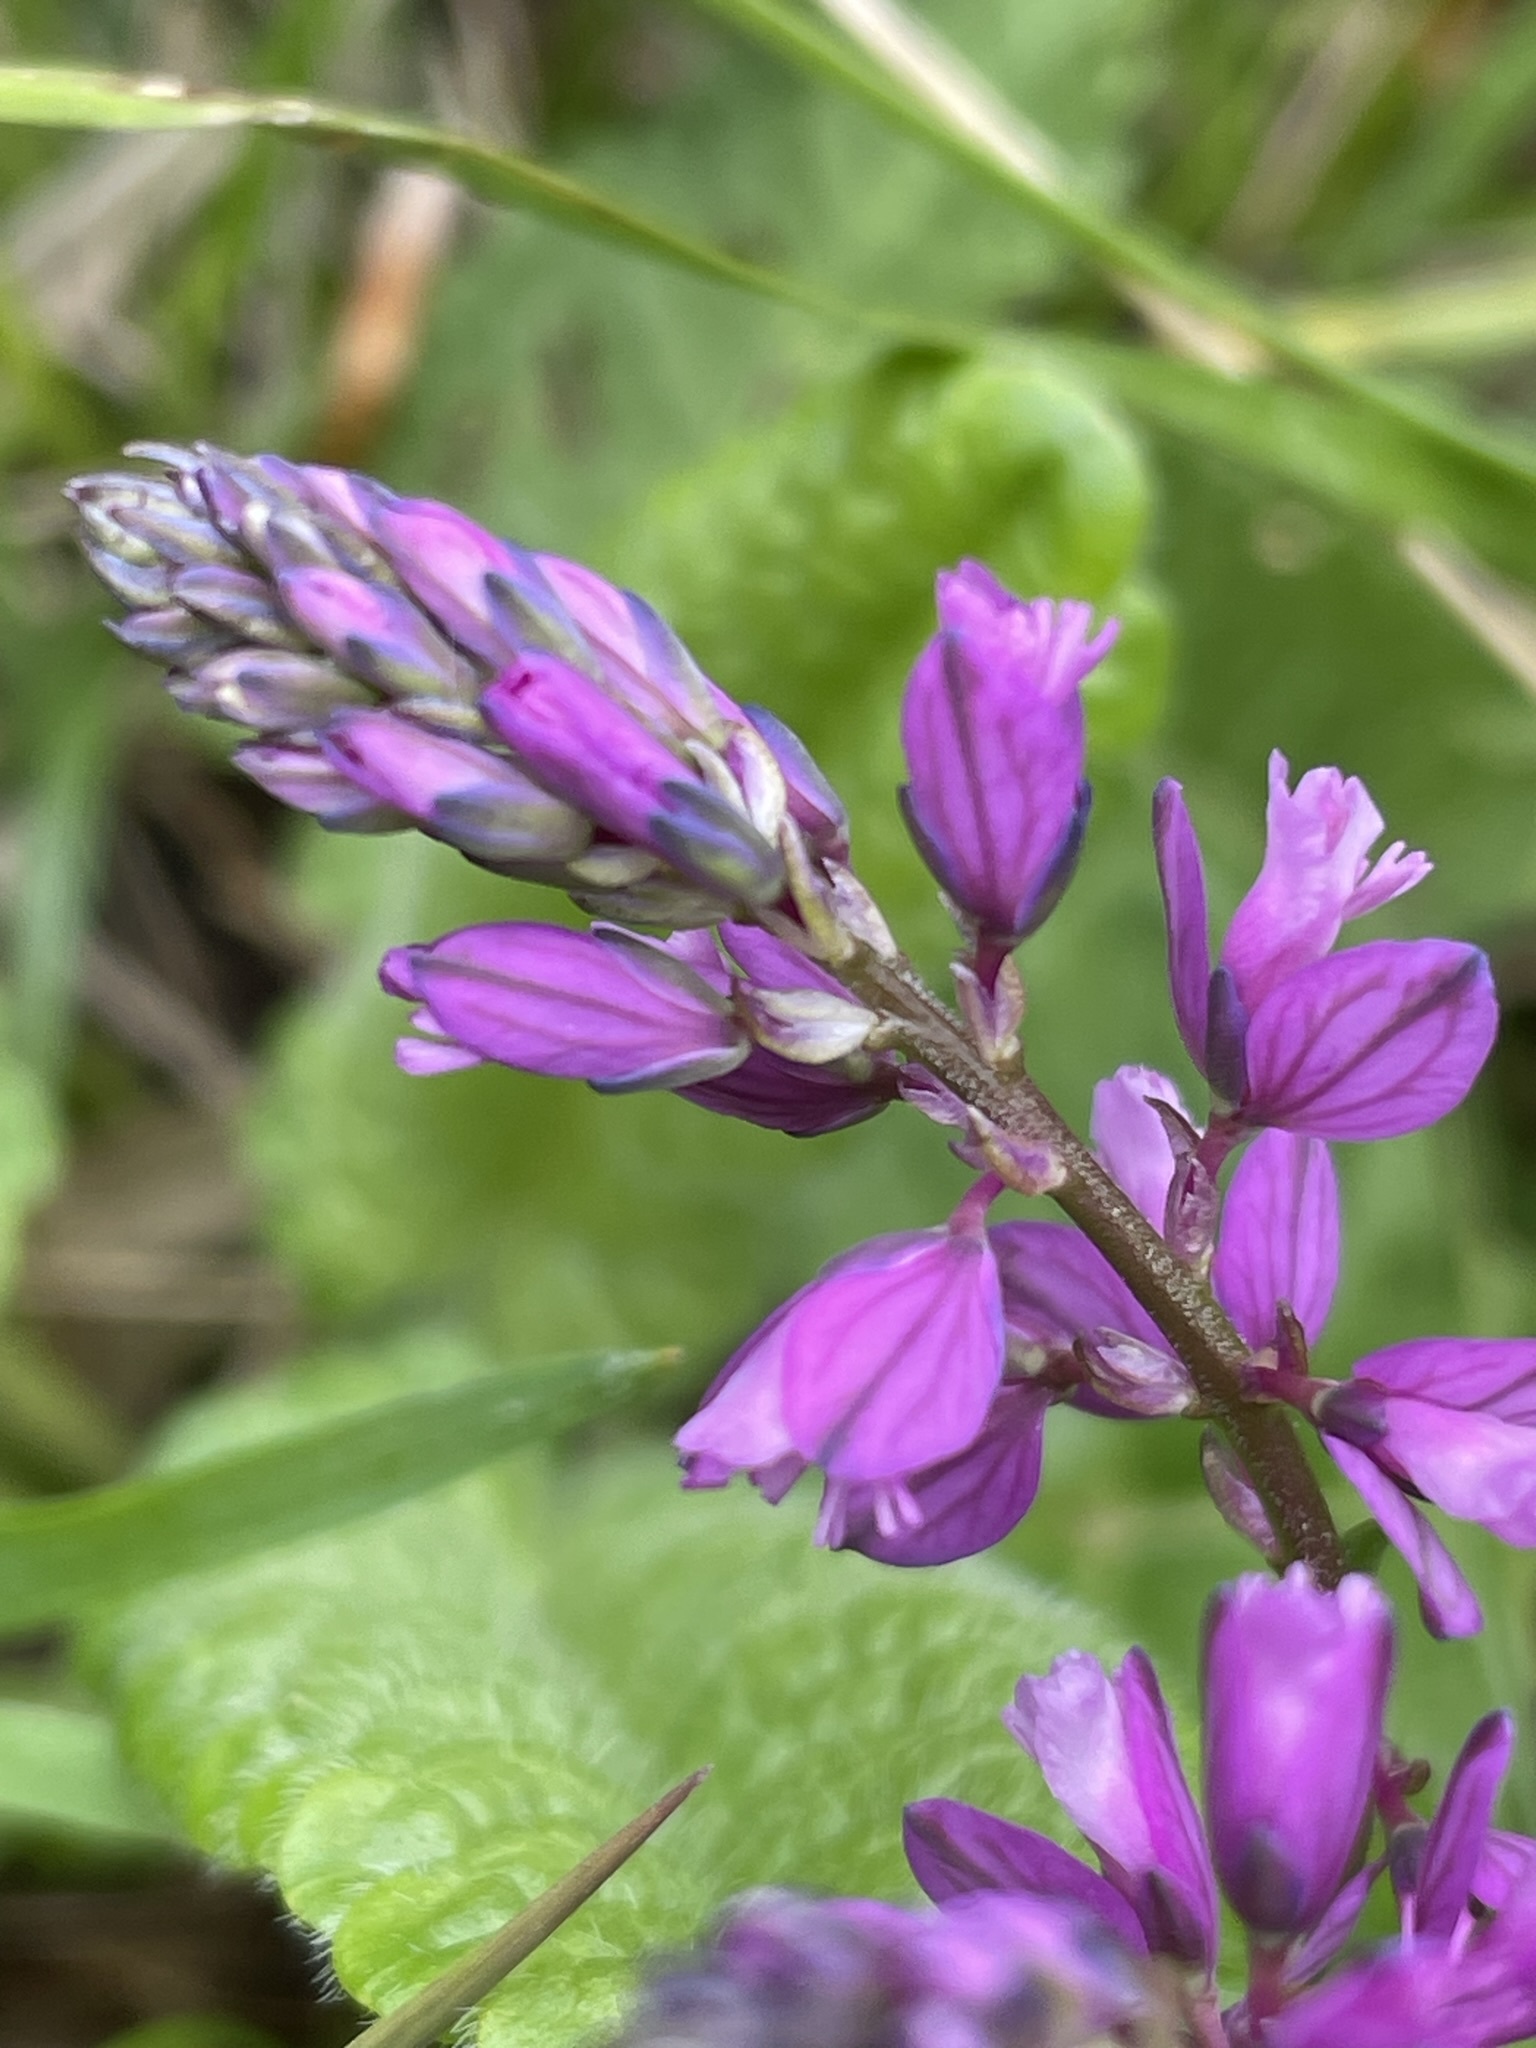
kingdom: Plantae
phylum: Tracheophyta
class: Magnoliopsida
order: Fabales
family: Polygalaceae
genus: Polygala
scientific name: Polygala comosa
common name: Tufted milkwort
